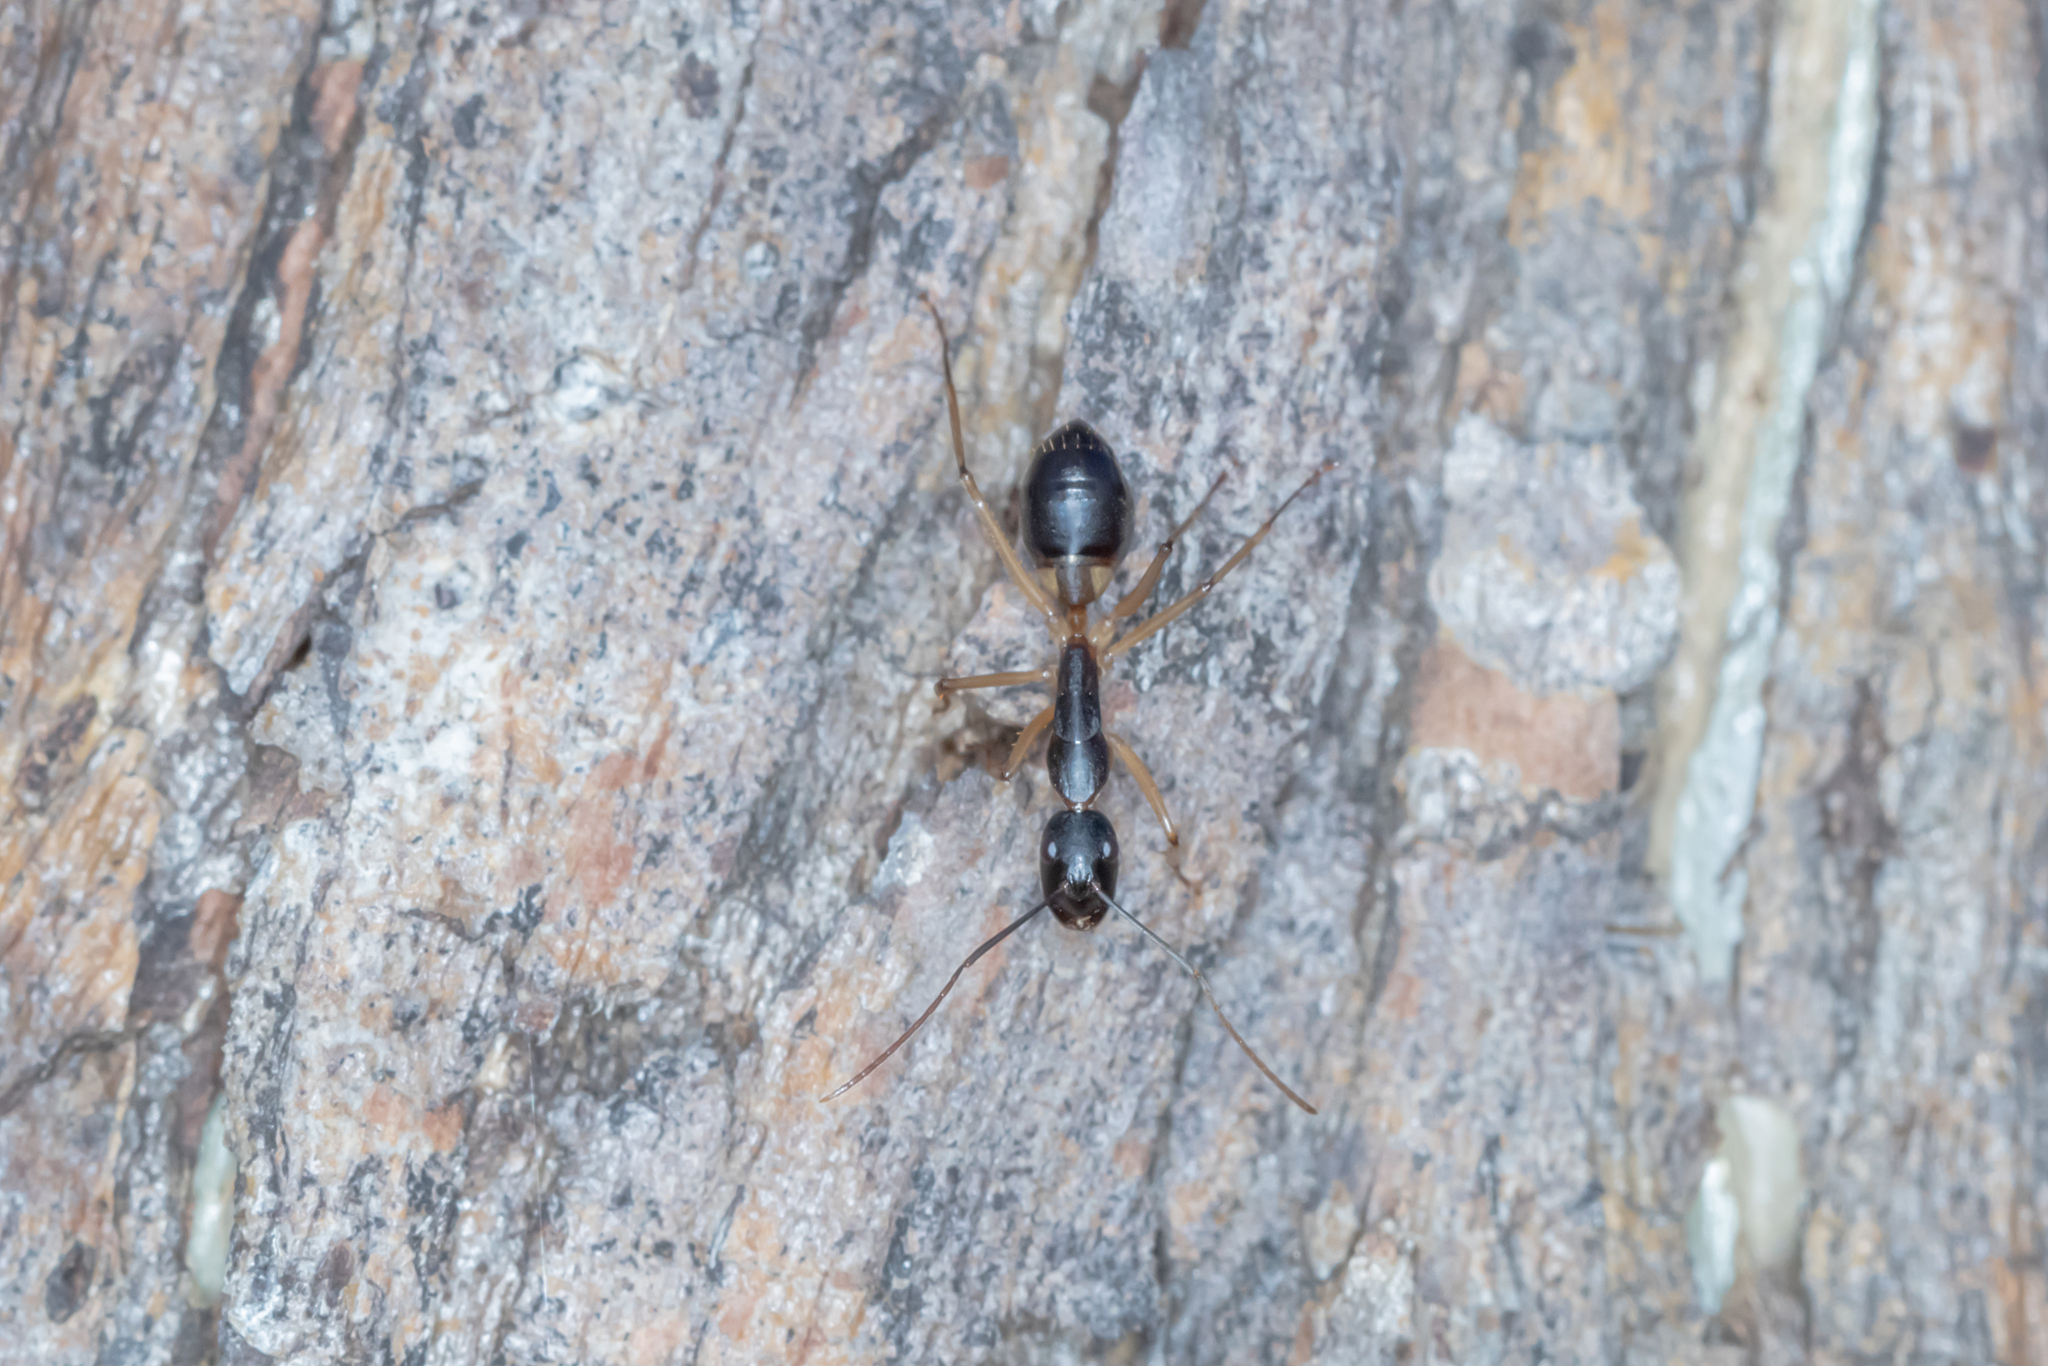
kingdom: Animalia
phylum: Arthropoda
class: Insecta
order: Hymenoptera
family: Formicidae
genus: Camponotus
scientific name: Camponotus consobrinus
